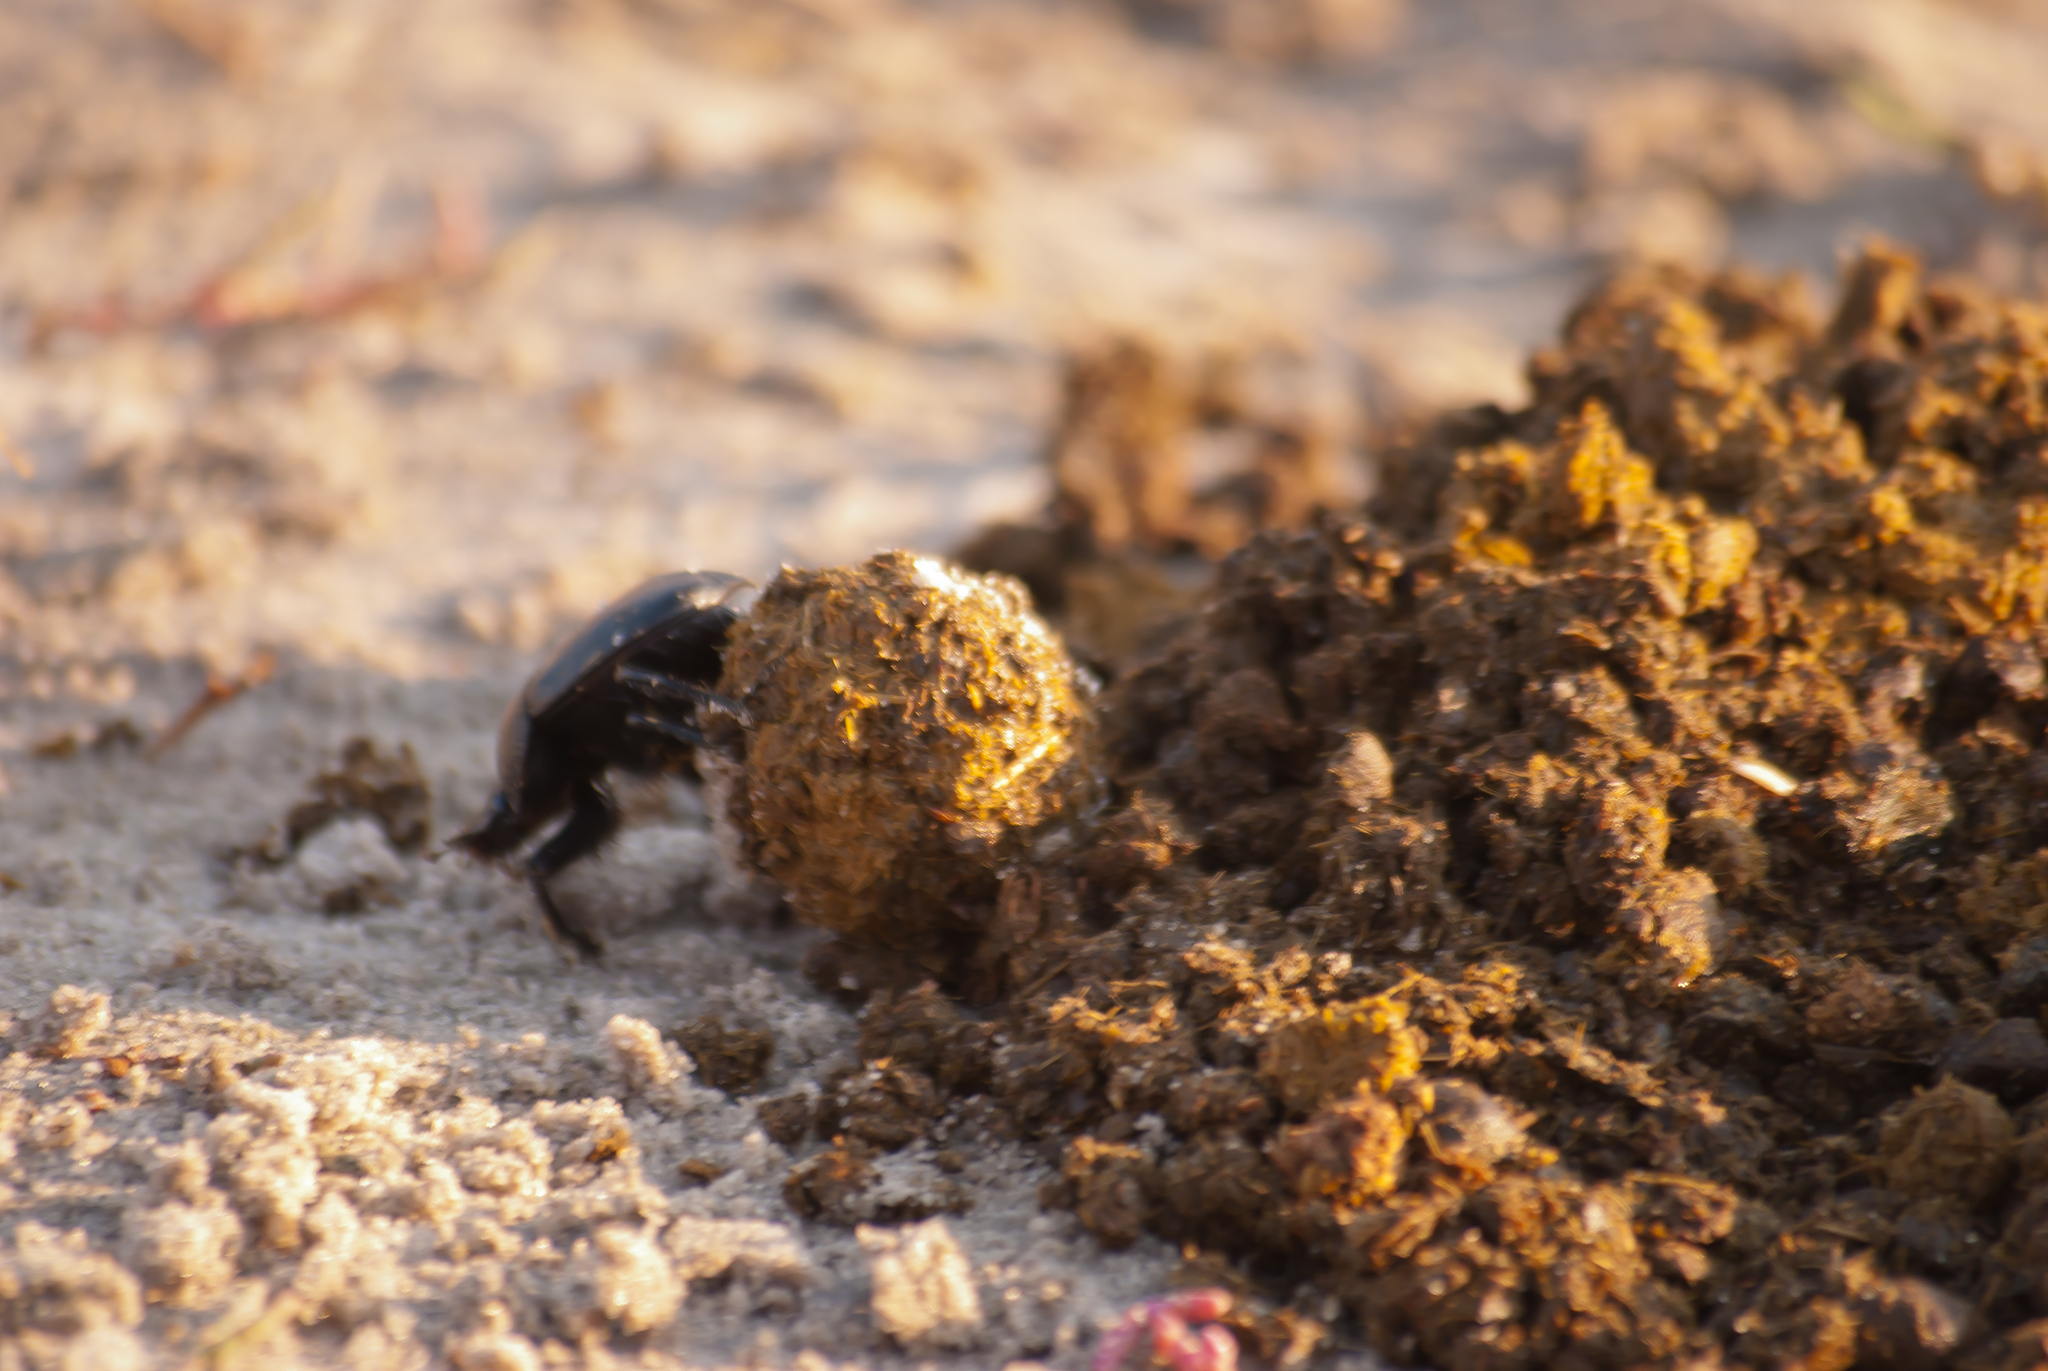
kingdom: Animalia
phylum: Arthropoda
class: Insecta
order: Coleoptera
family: Scarabaeidae
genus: Scarabaeus
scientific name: Scarabaeus typhon
